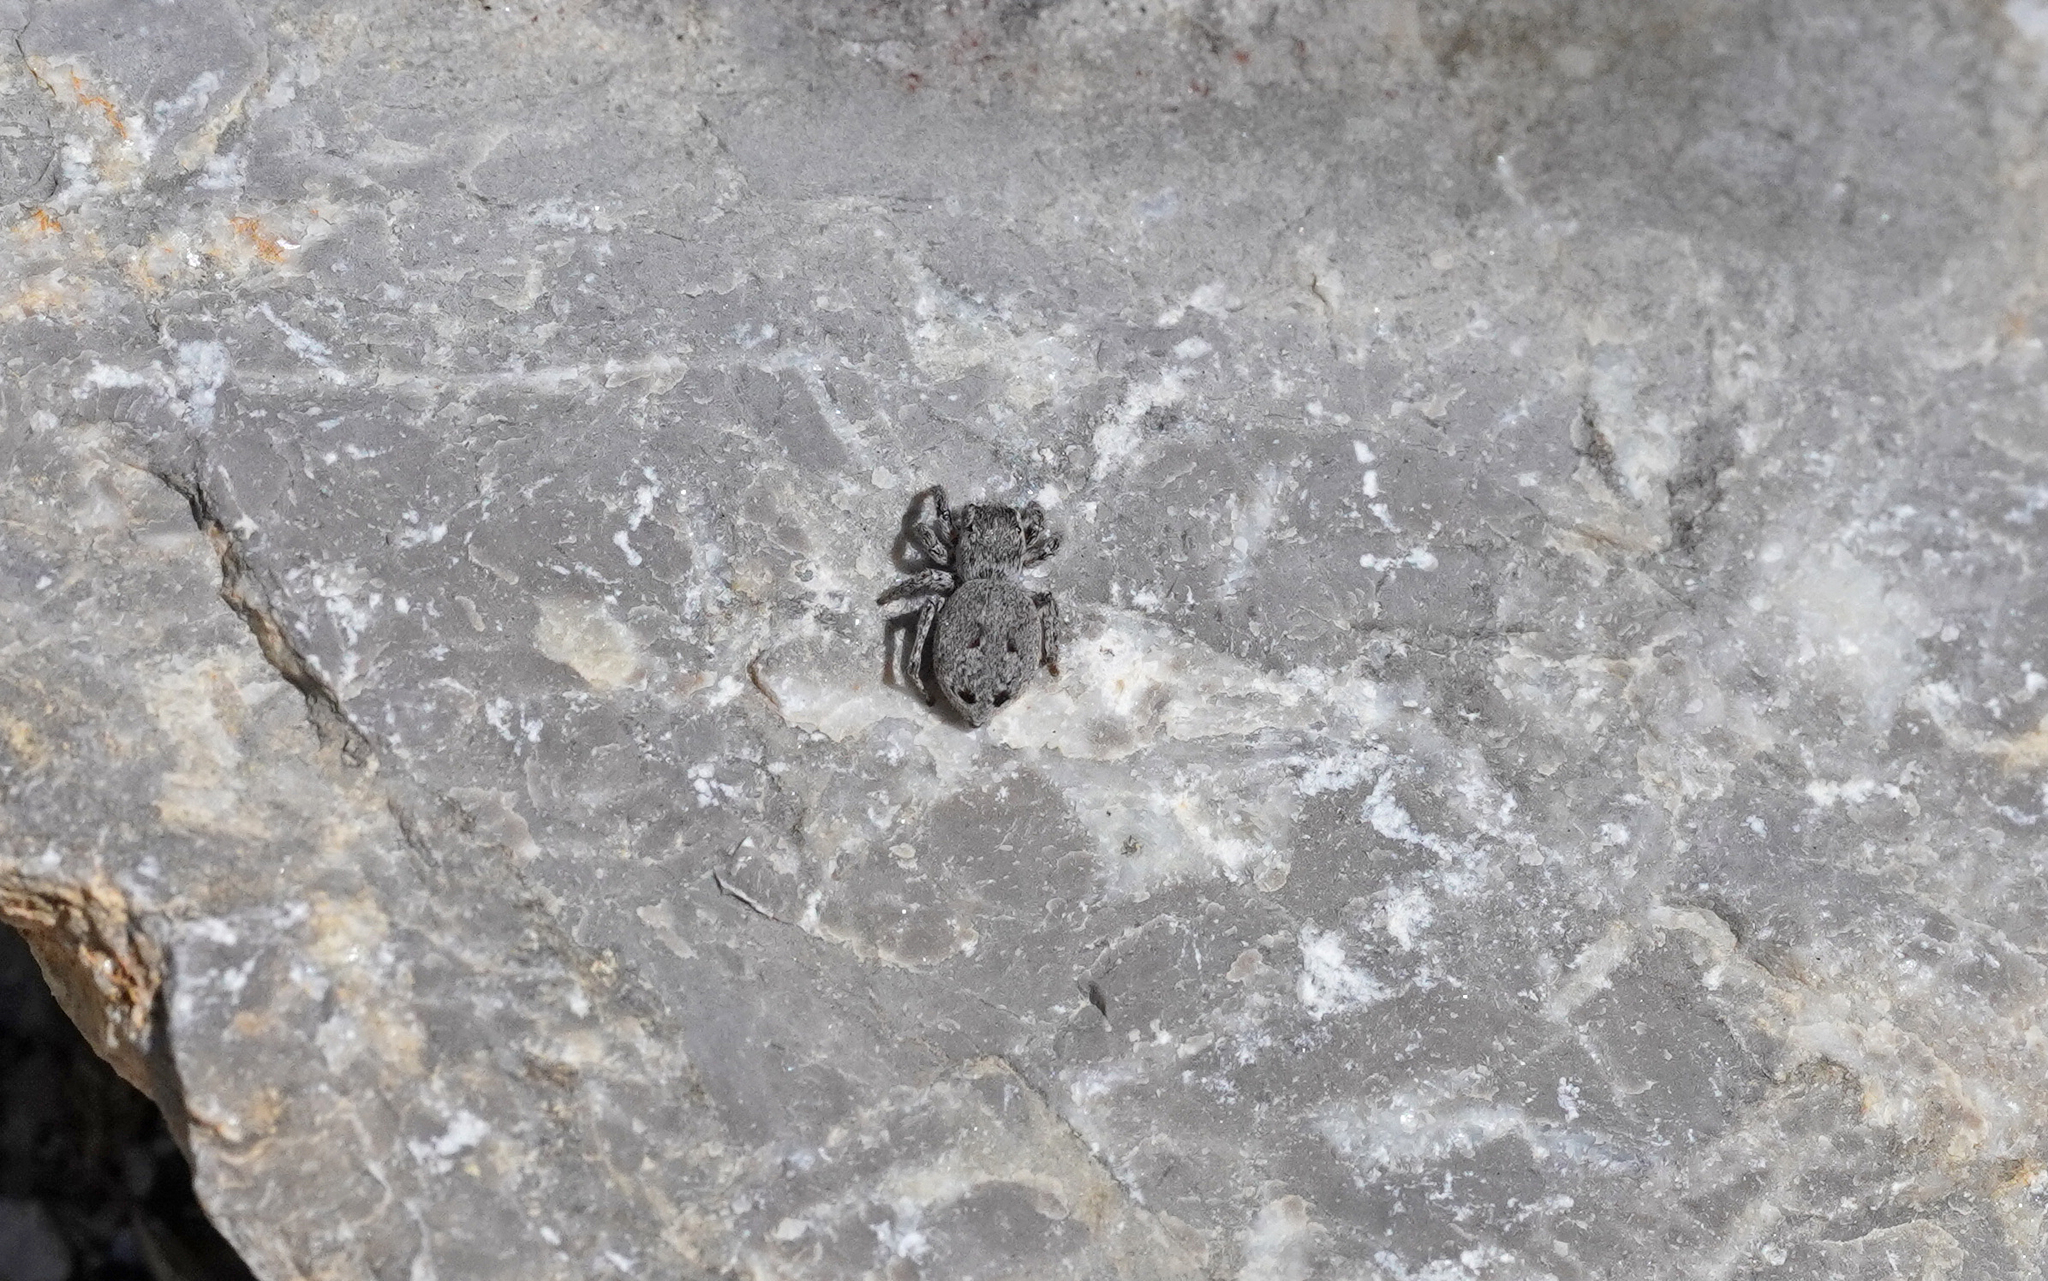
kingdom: Animalia
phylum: Arthropoda
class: Arachnida
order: Araneae
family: Salticidae
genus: Attulus
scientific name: Attulus atricapillus
